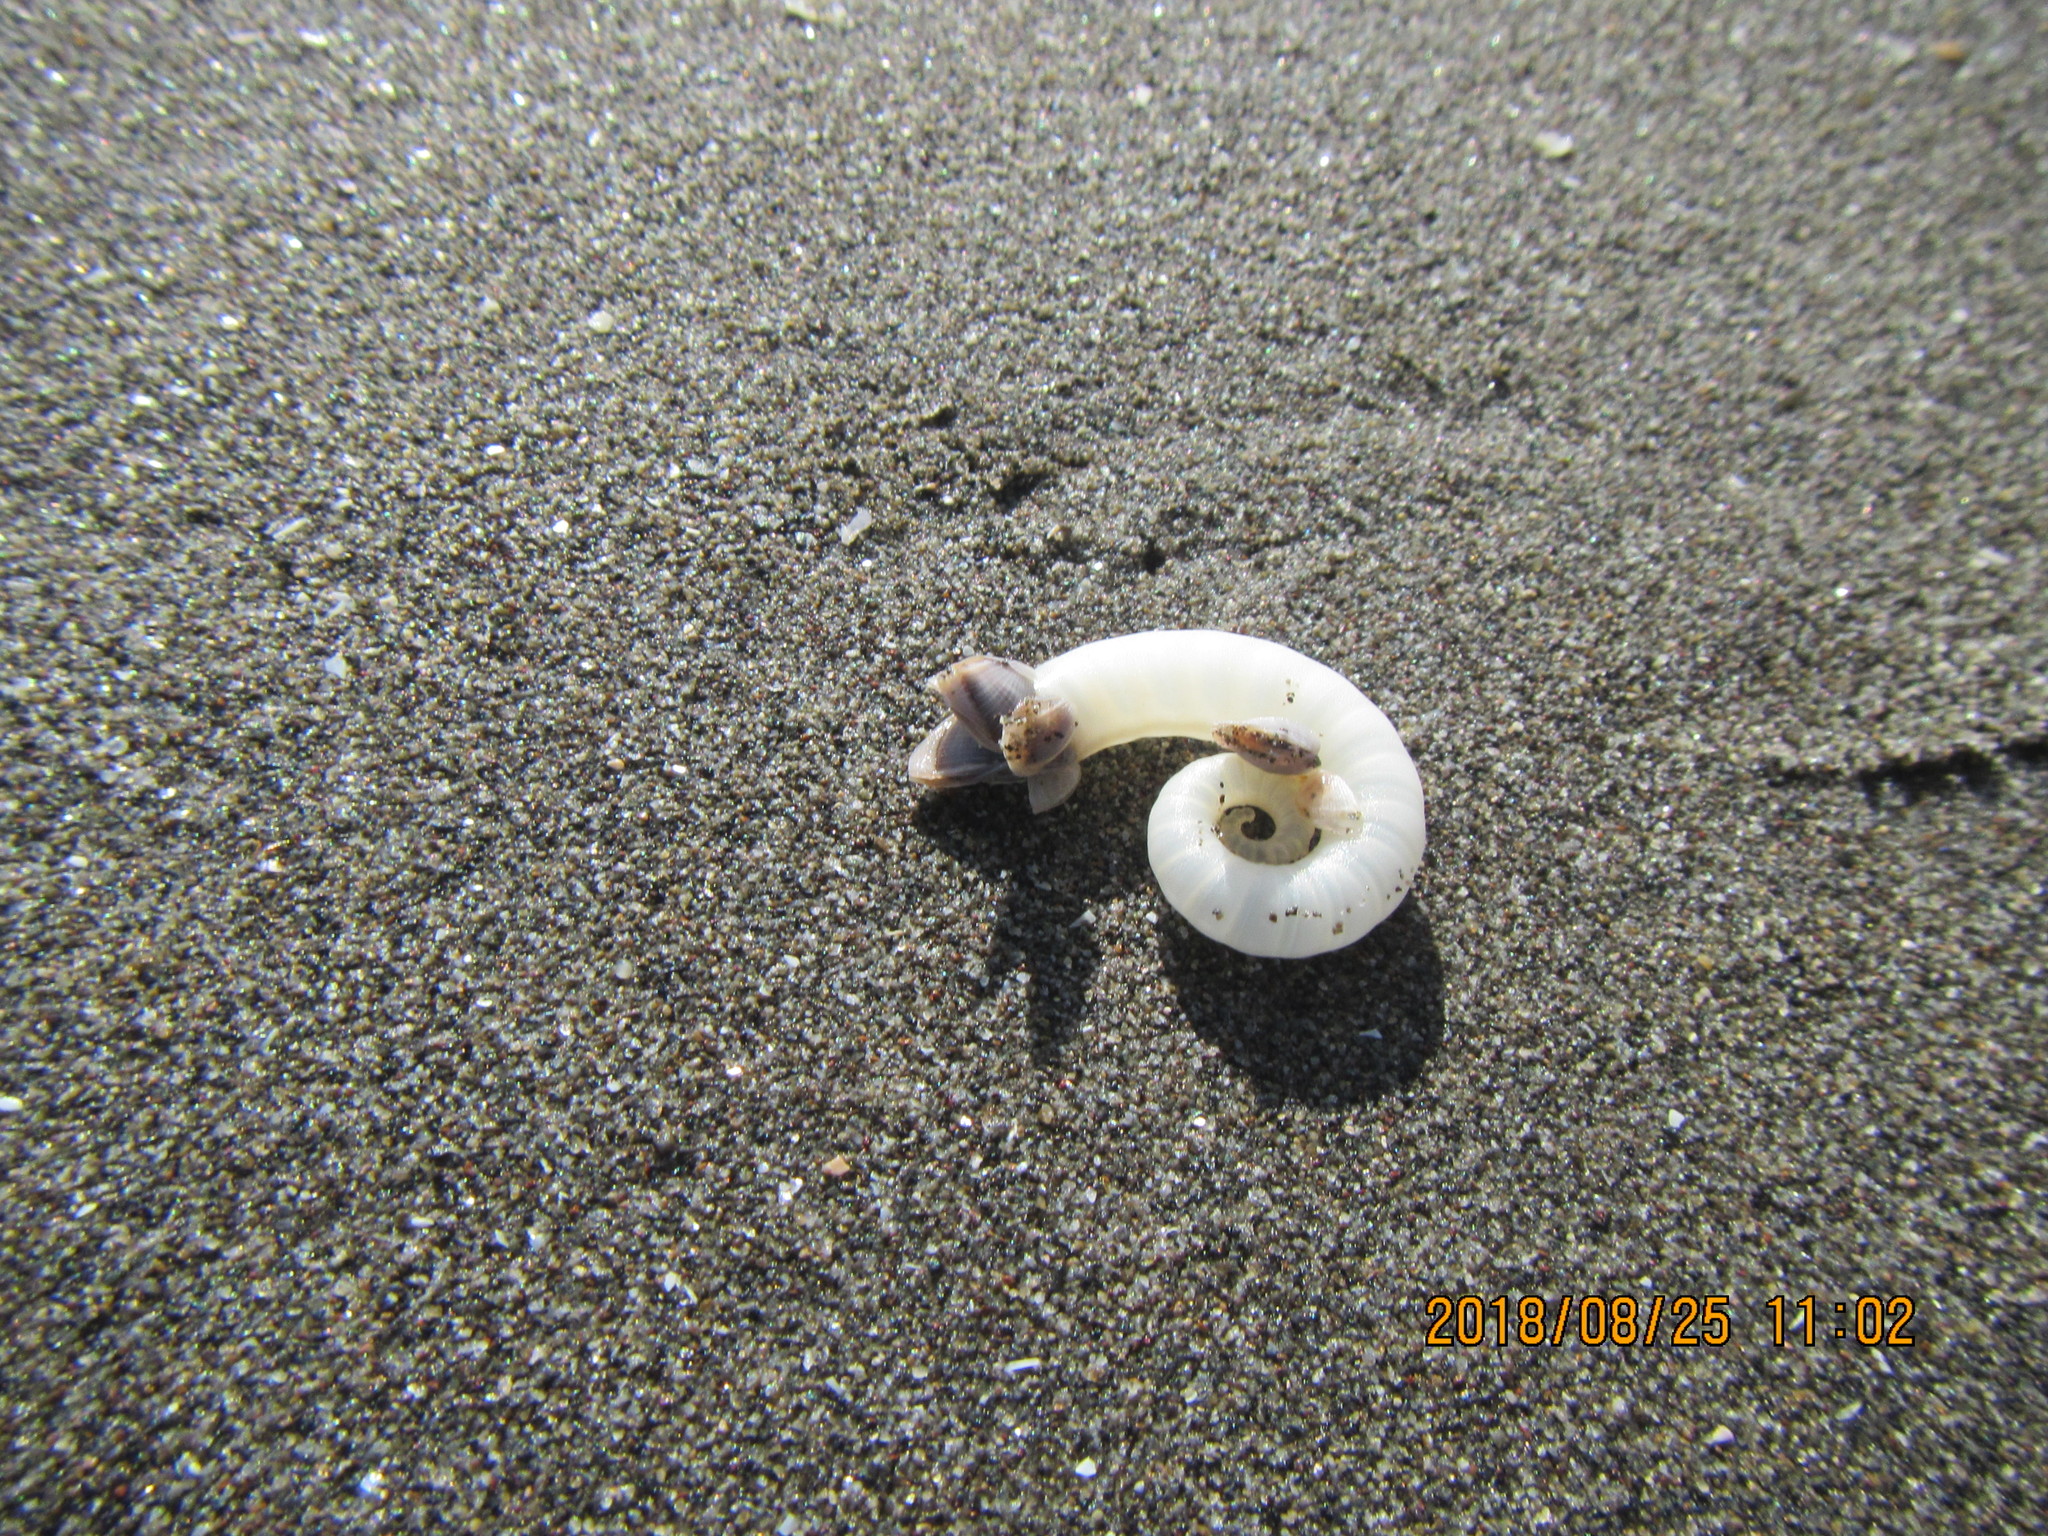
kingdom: Animalia
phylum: Mollusca
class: Cephalopoda
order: Spirulida
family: Spirulidae
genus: Spirula
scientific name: Spirula spirula
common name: Ram's horn squid
